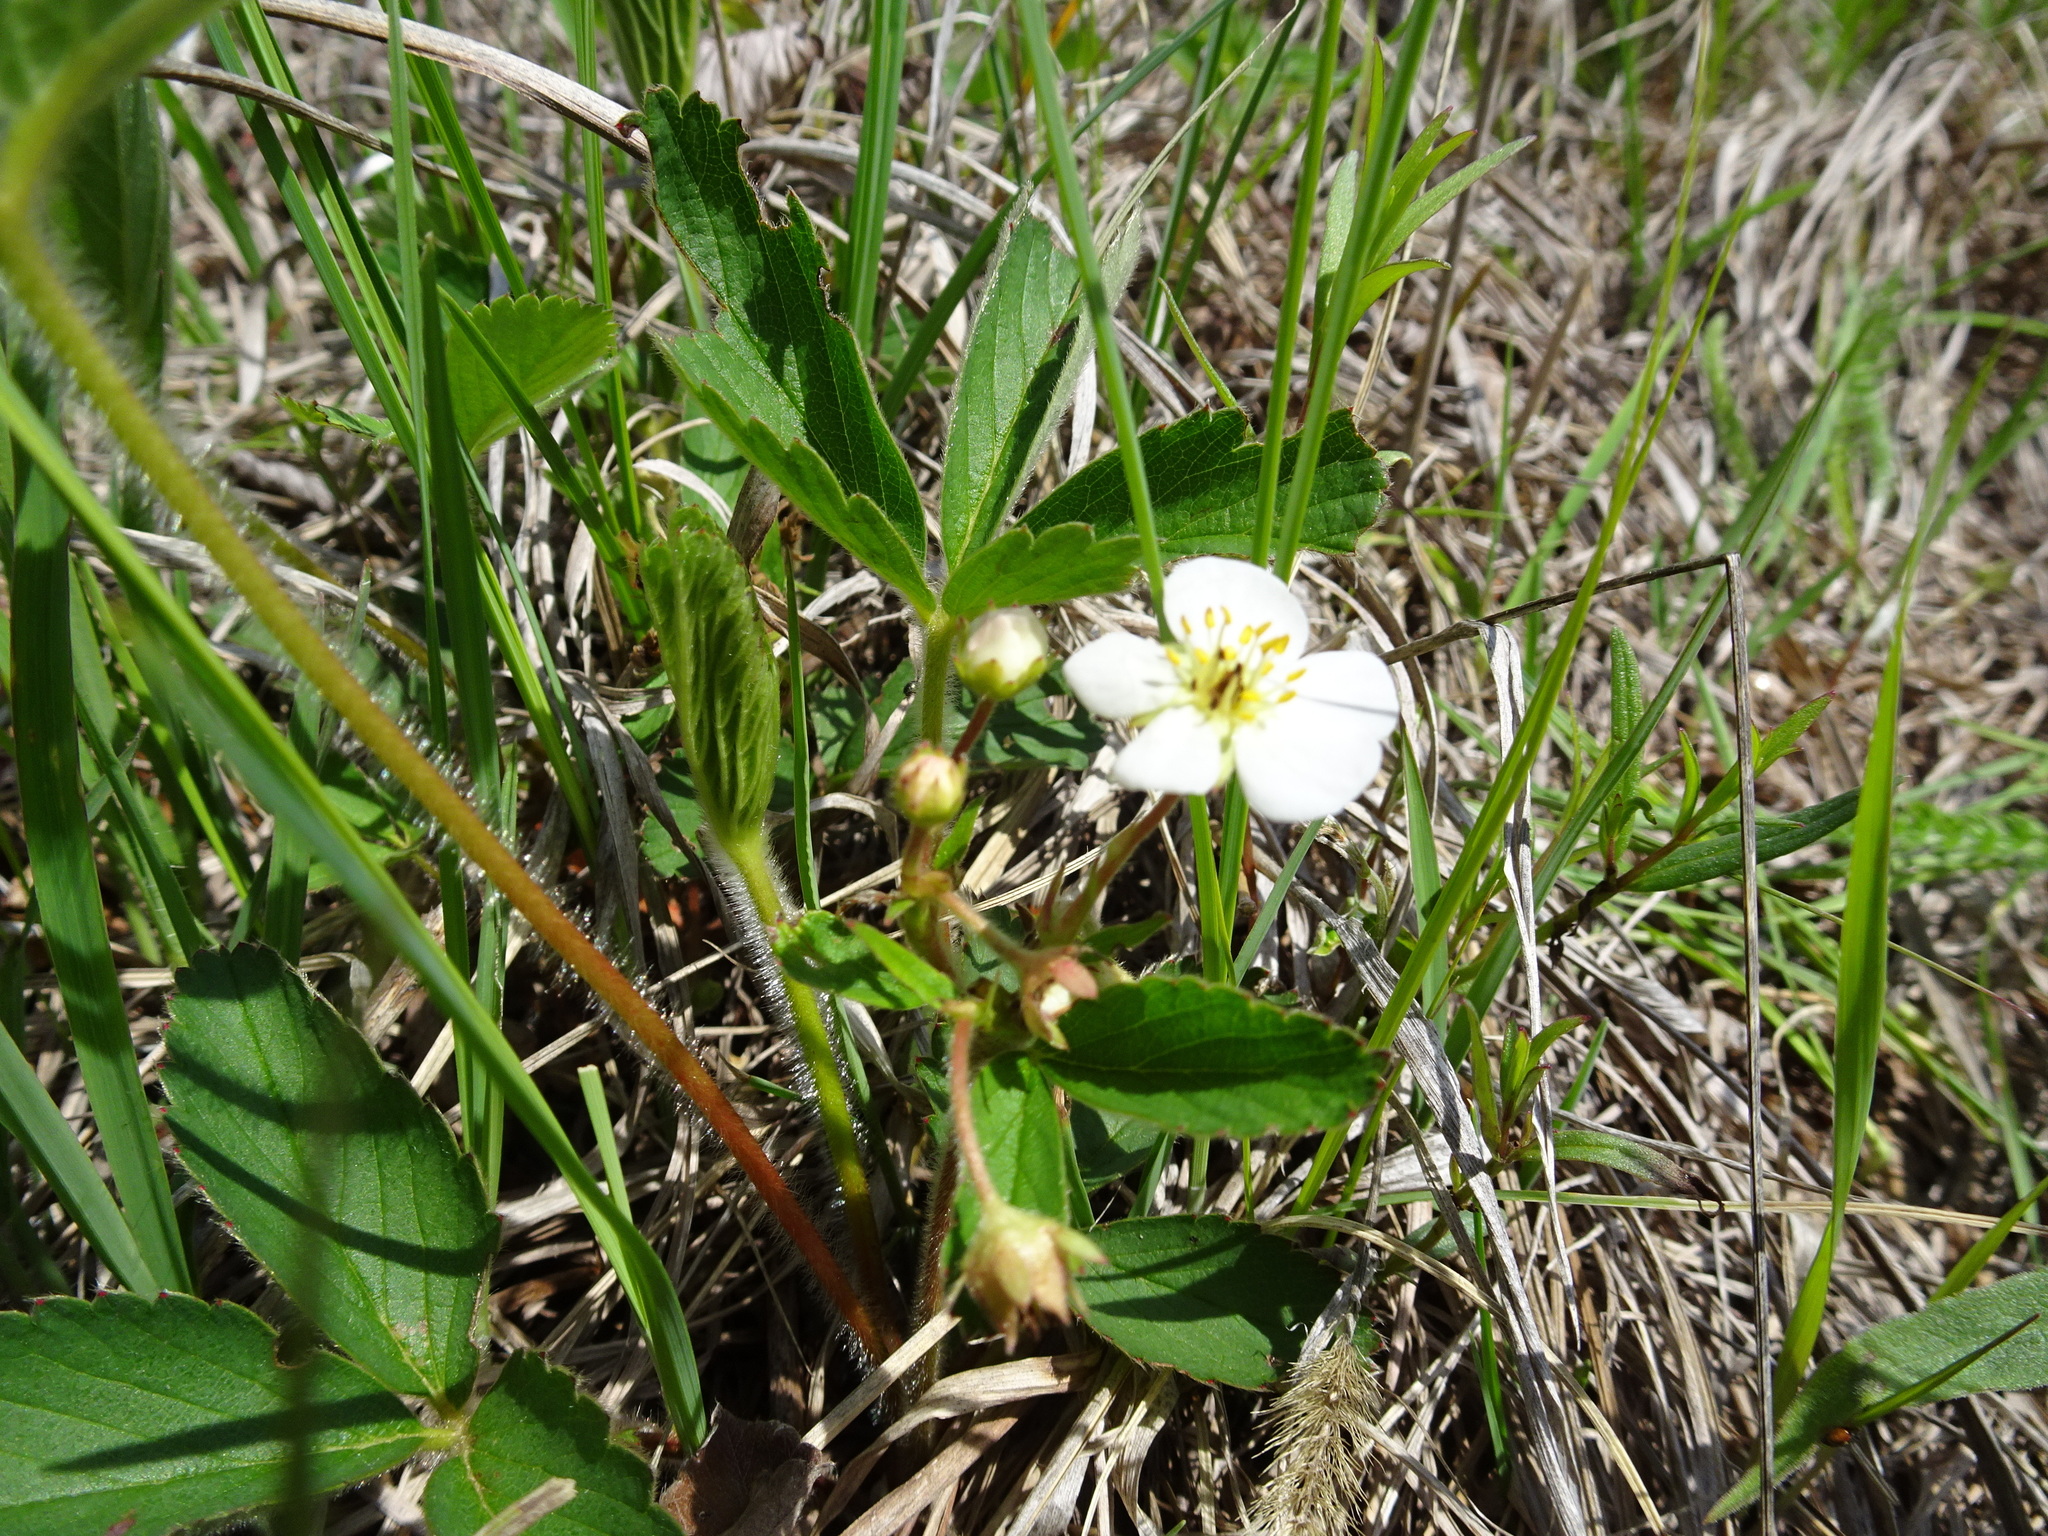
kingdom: Plantae
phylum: Tracheophyta
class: Magnoliopsida
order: Rosales
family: Rosaceae
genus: Fragaria
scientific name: Fragaria virginiana
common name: Thickleaved wild strawberry
